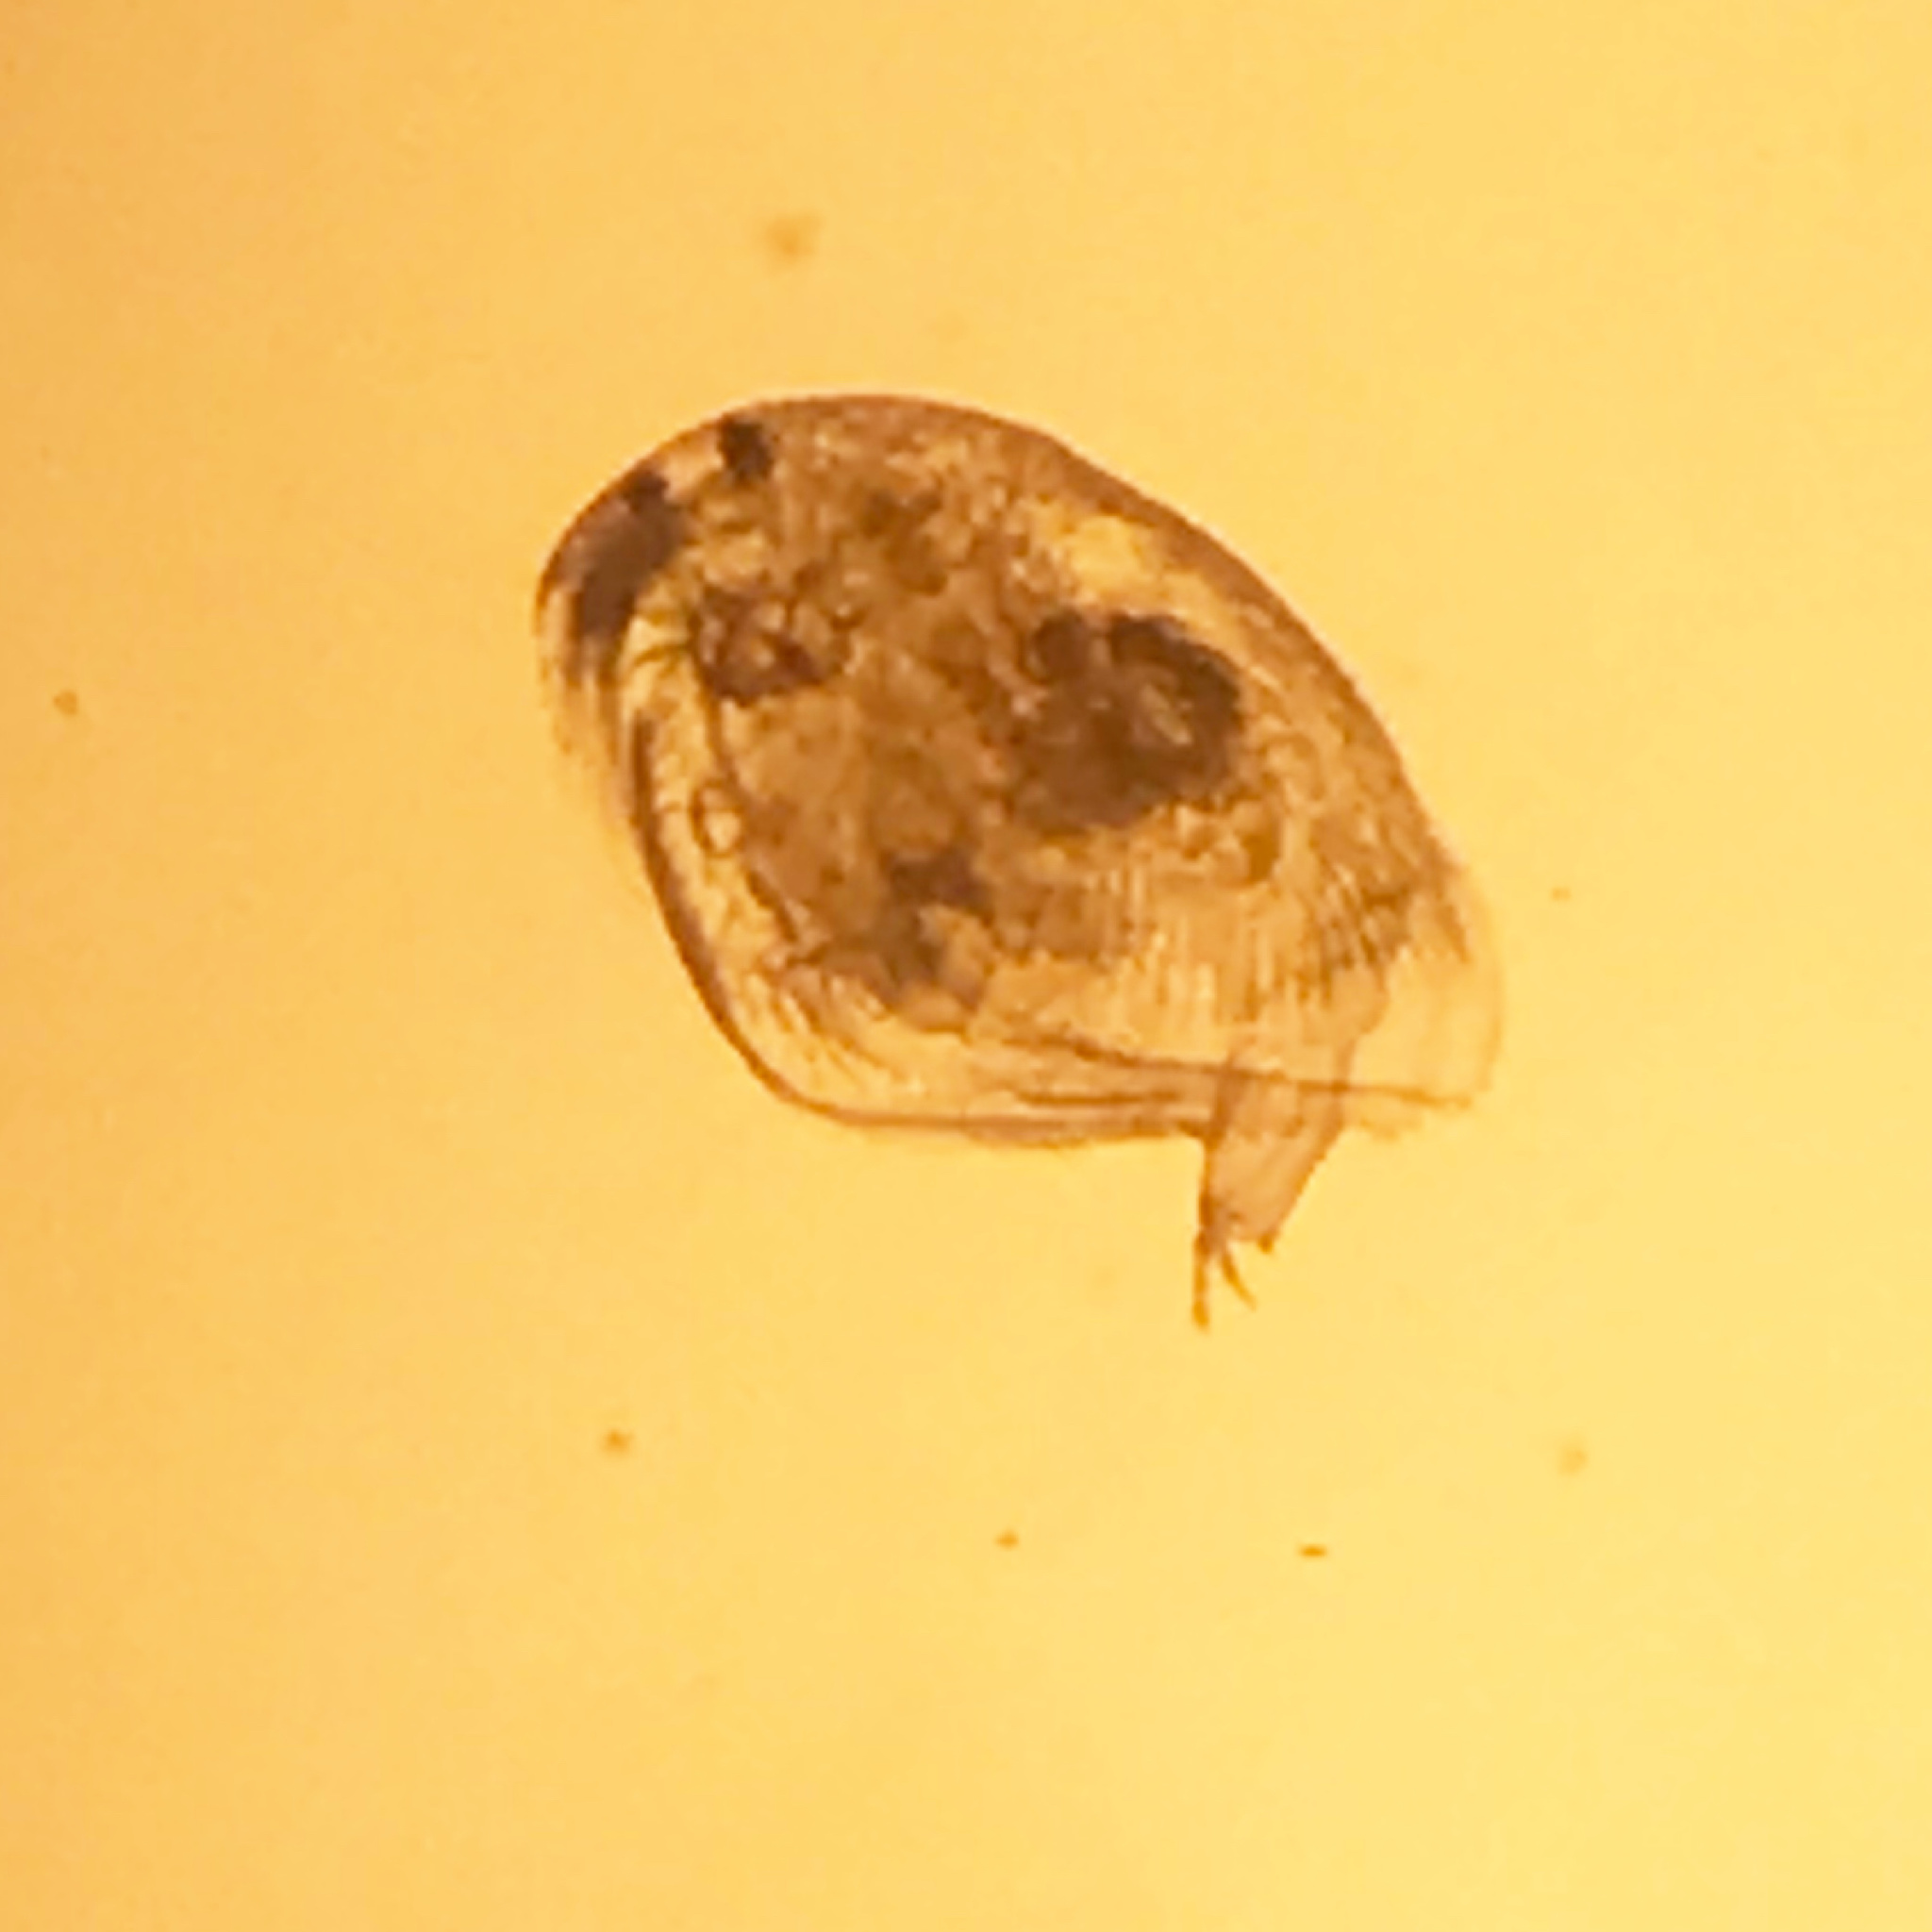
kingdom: Animalia
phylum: Arthropoda
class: Branchiopoda
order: Diplostraca
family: Chydoridae
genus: Picripleuroxus
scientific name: Picripleuroxus denticulatus
